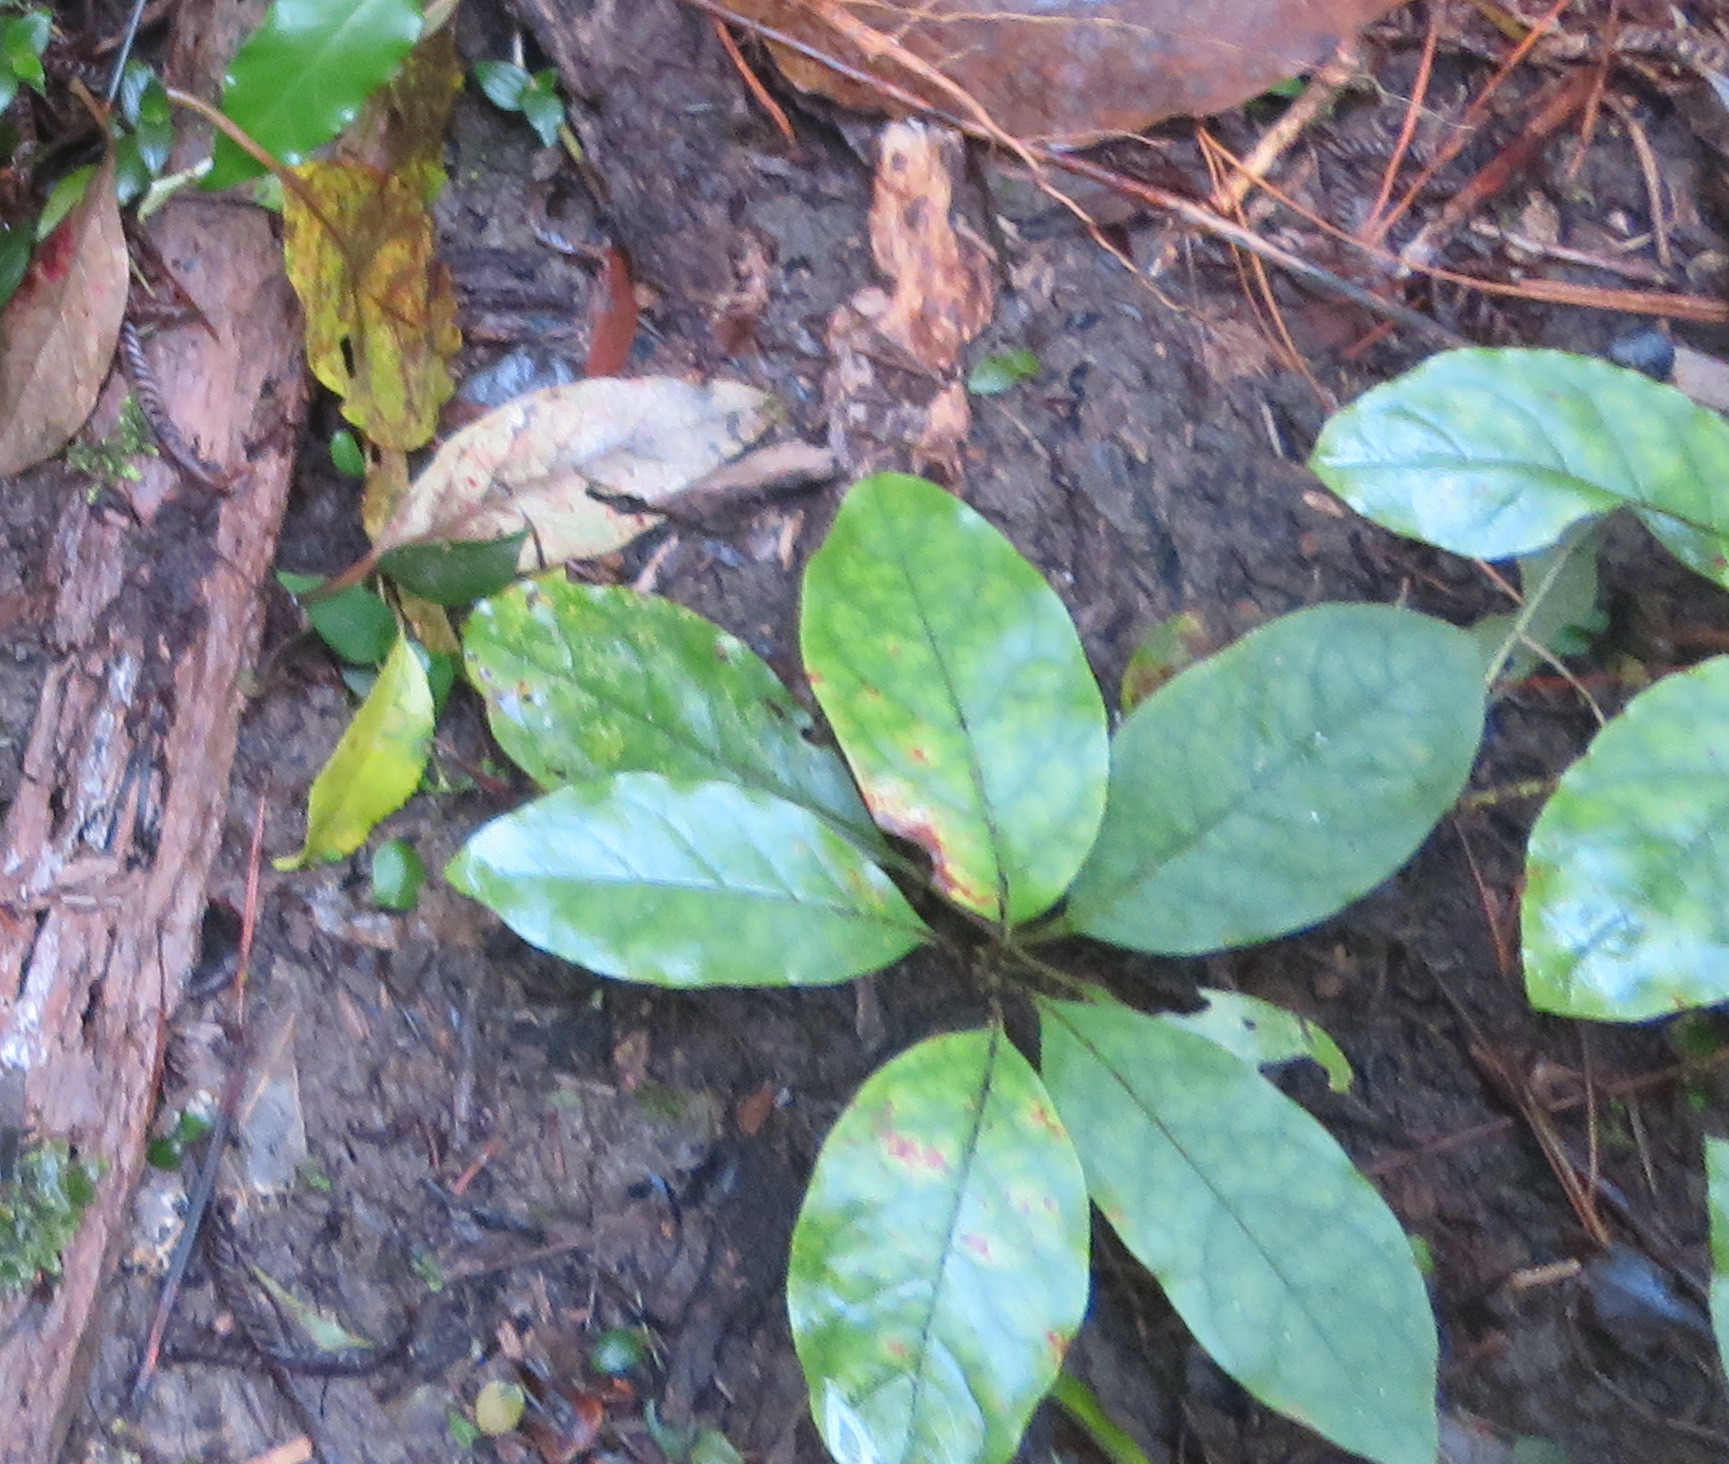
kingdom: Plantae
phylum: Tracheophyta
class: Magnoliopsida
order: Gentianales
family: Rubiaceae
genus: Coprosma
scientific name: Coprosma autumnalis
